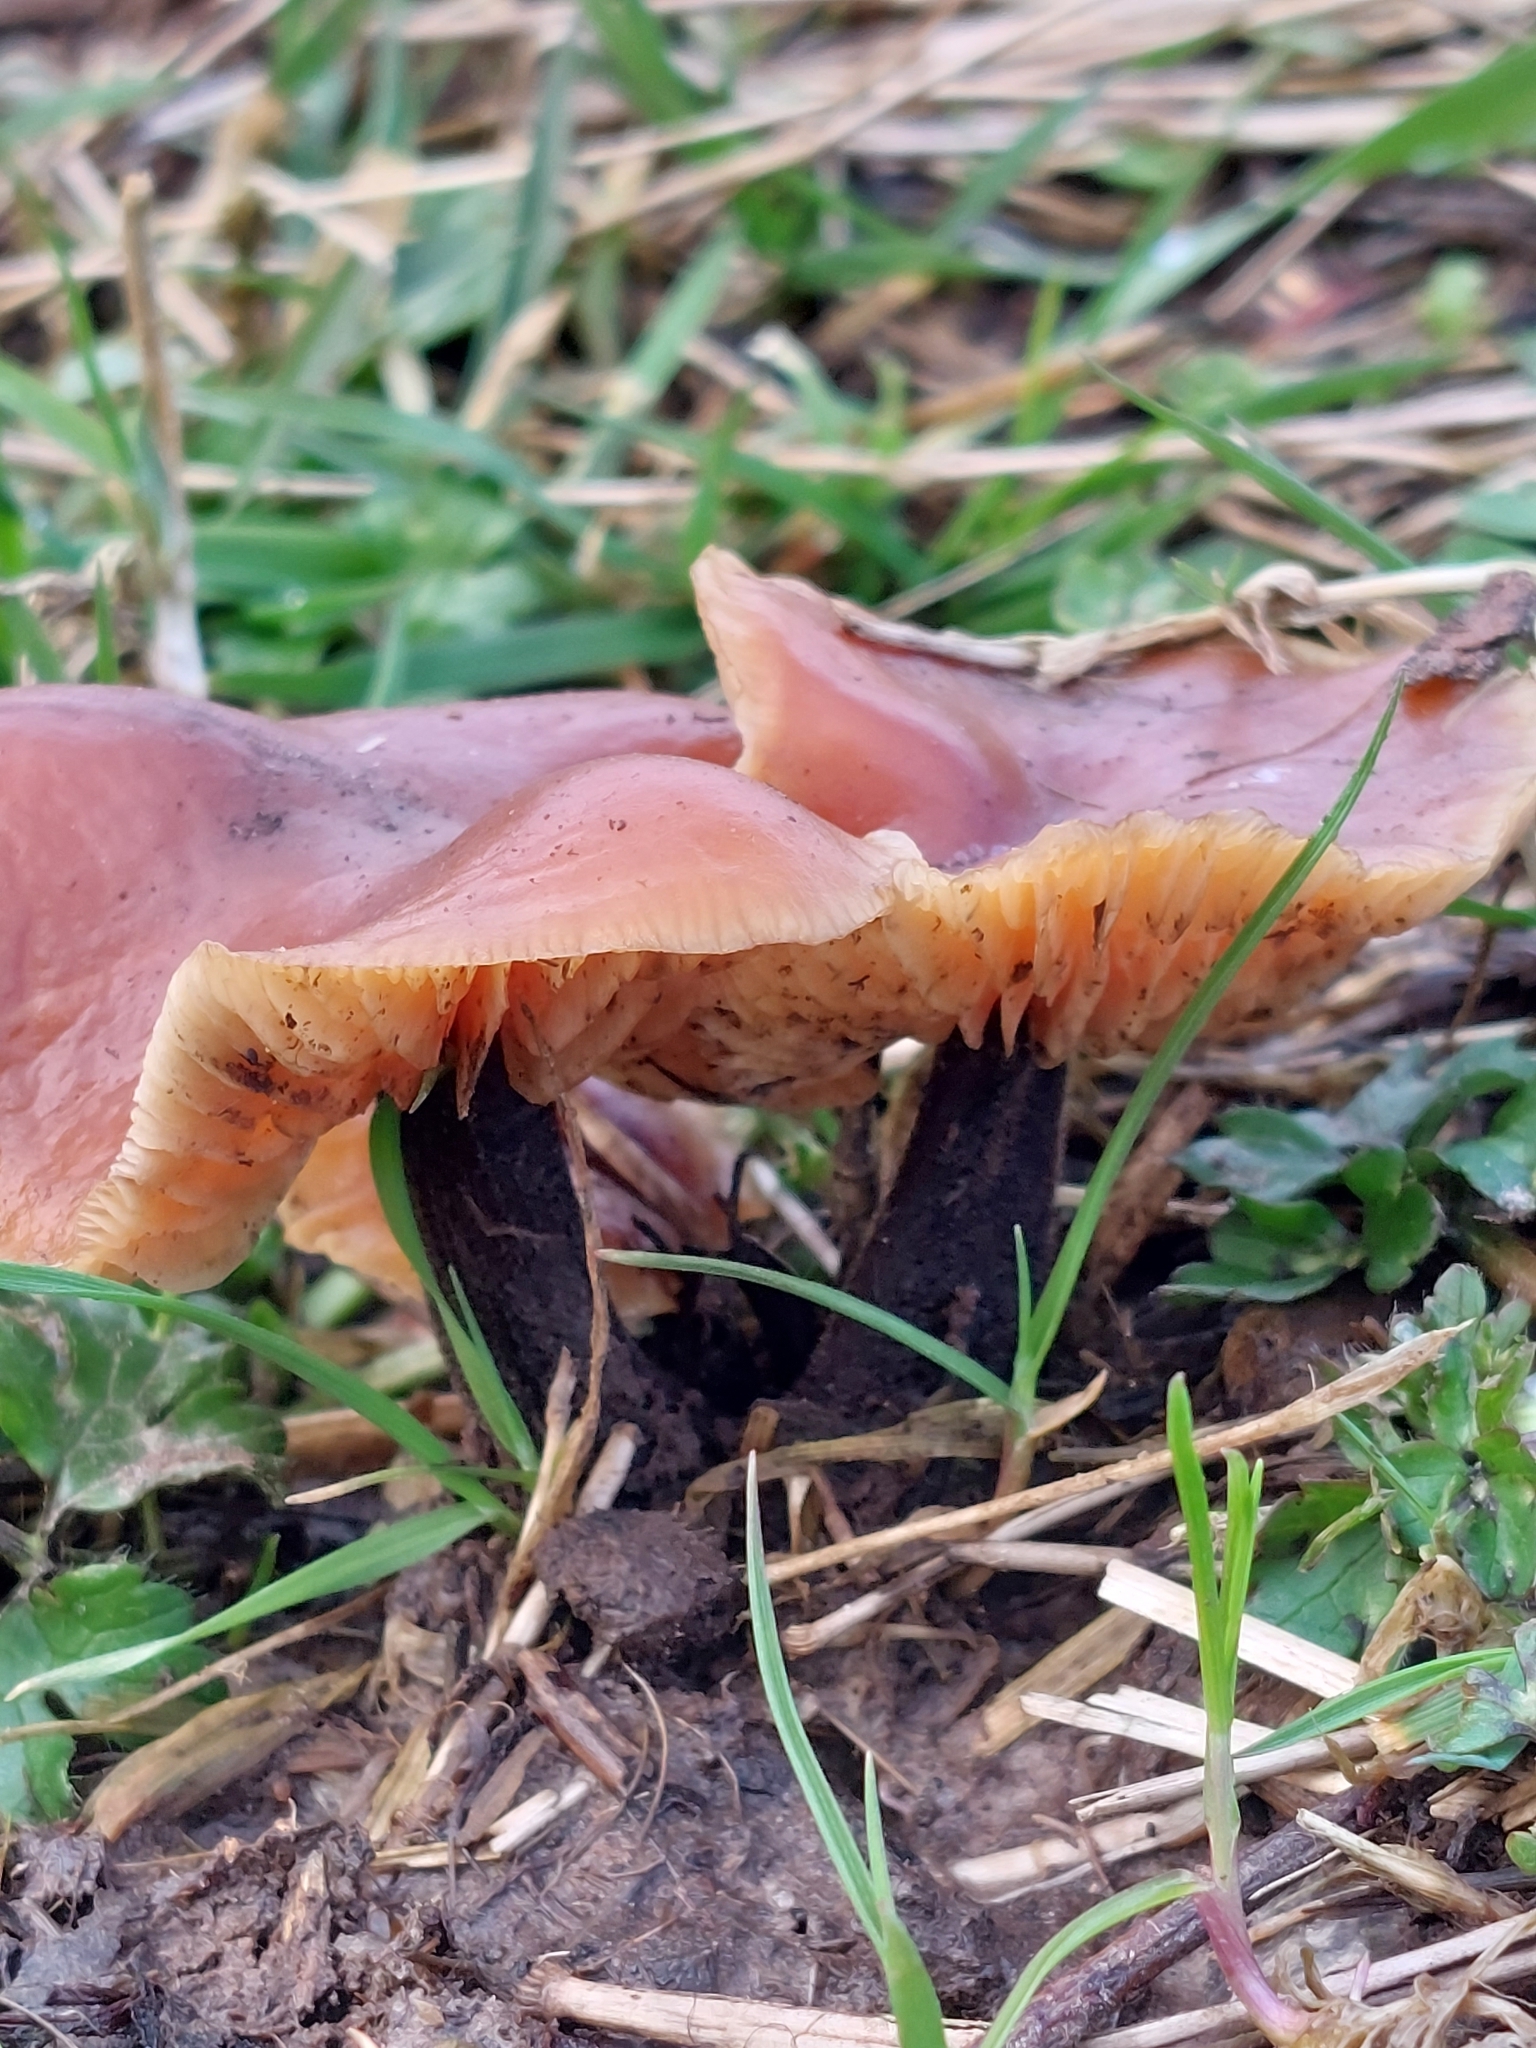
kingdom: Fungi
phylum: Basidiomycota
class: Agaricomycetes
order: Agaricales
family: Physalacriaceae
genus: Flammulina
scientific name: Flammulina
